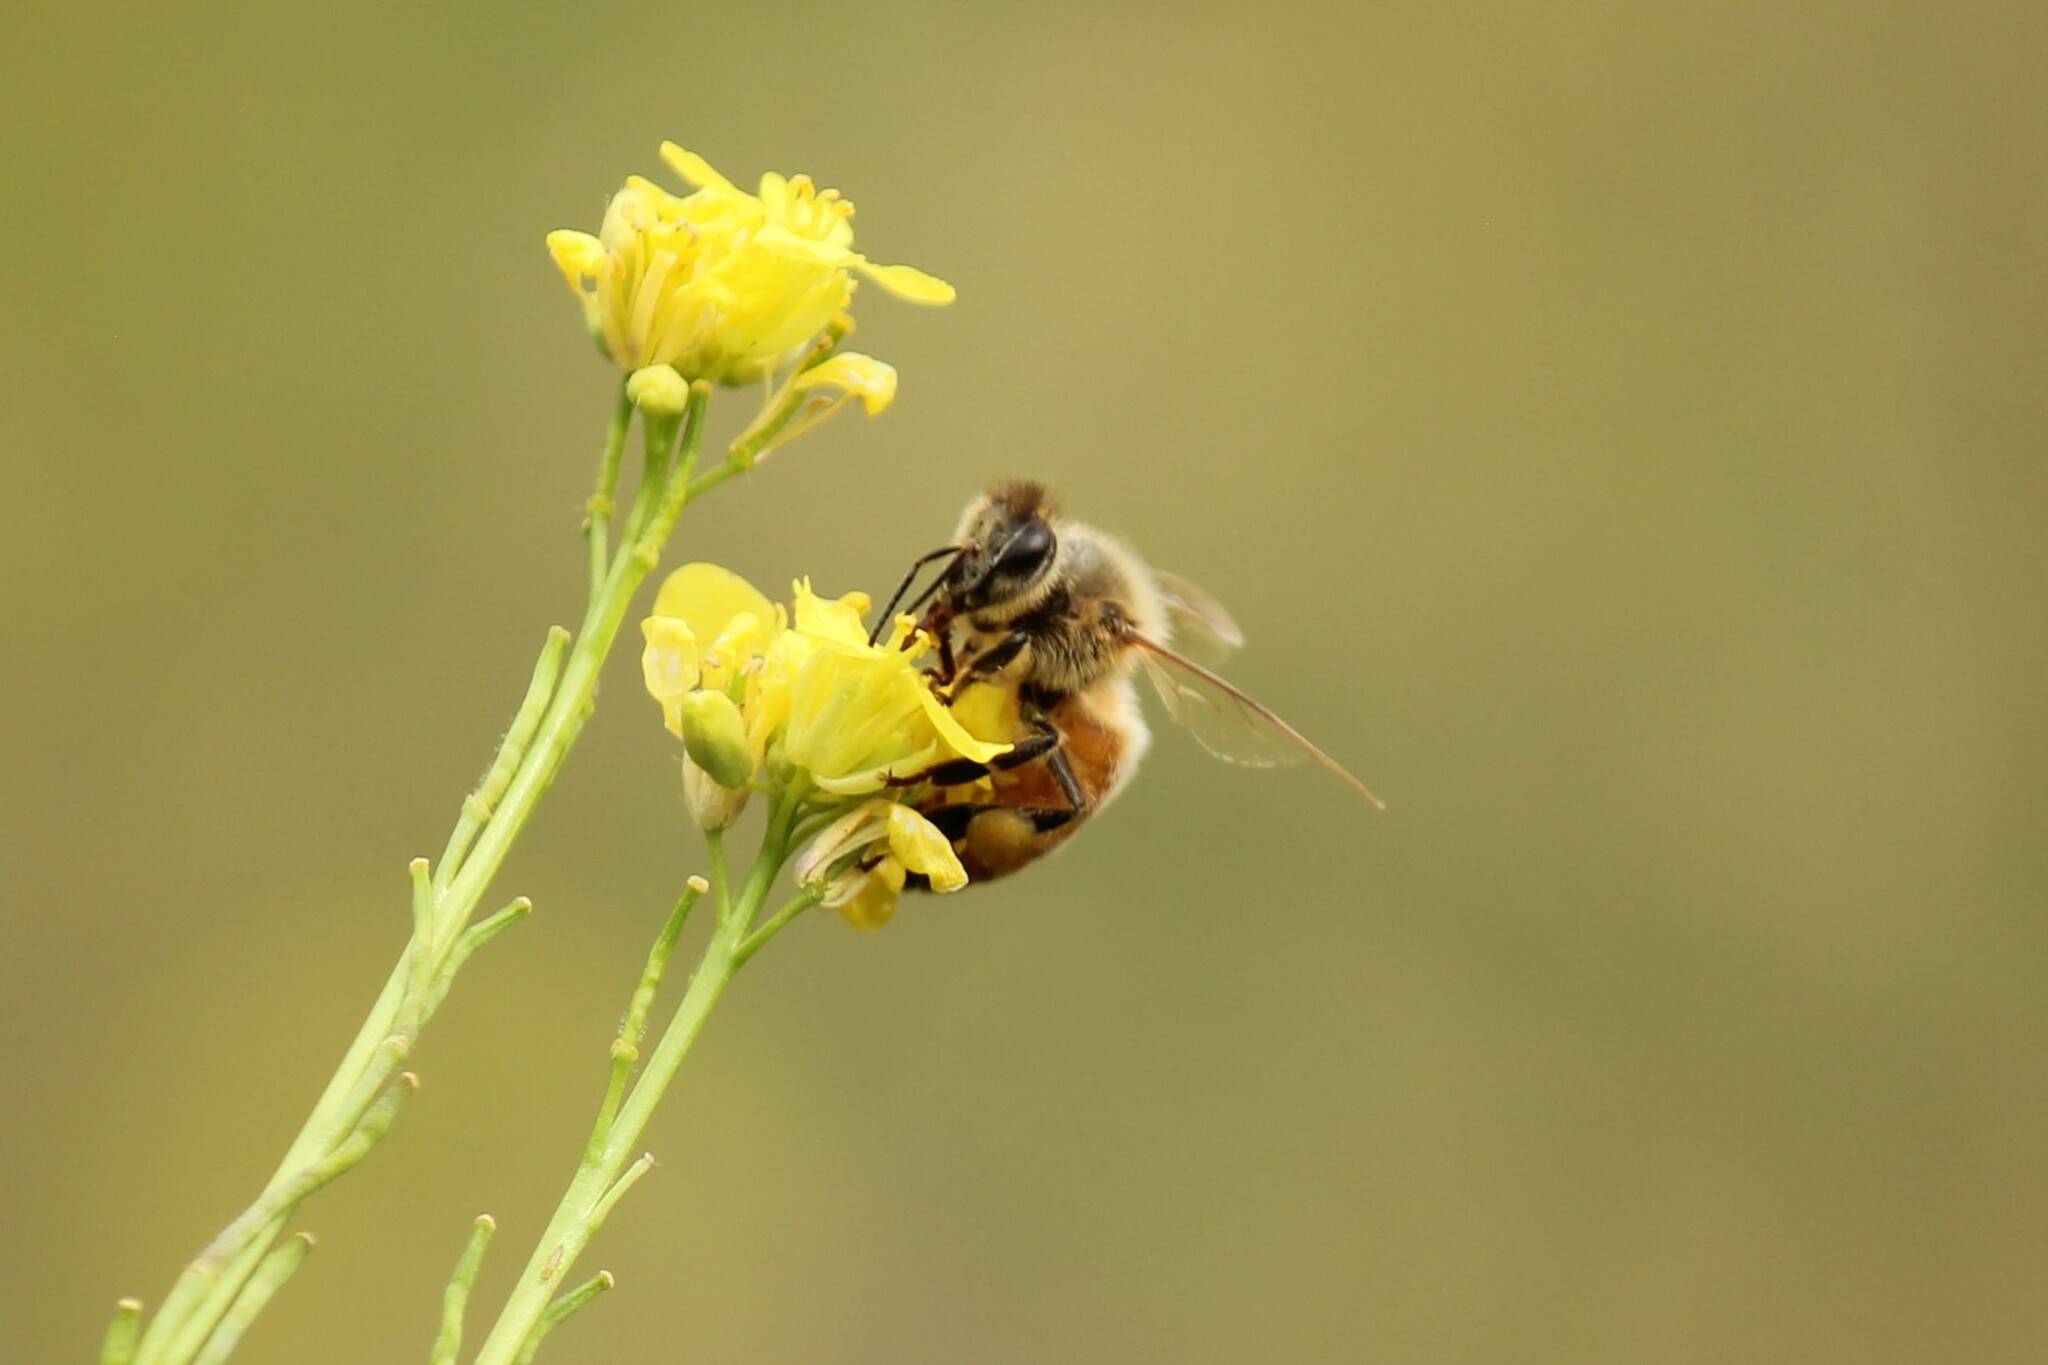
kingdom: Animalia
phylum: Arthropoda
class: Insecta
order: Hymenoptera
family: Apidae
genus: Apis
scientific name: Apis mellifera
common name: Honey bee
